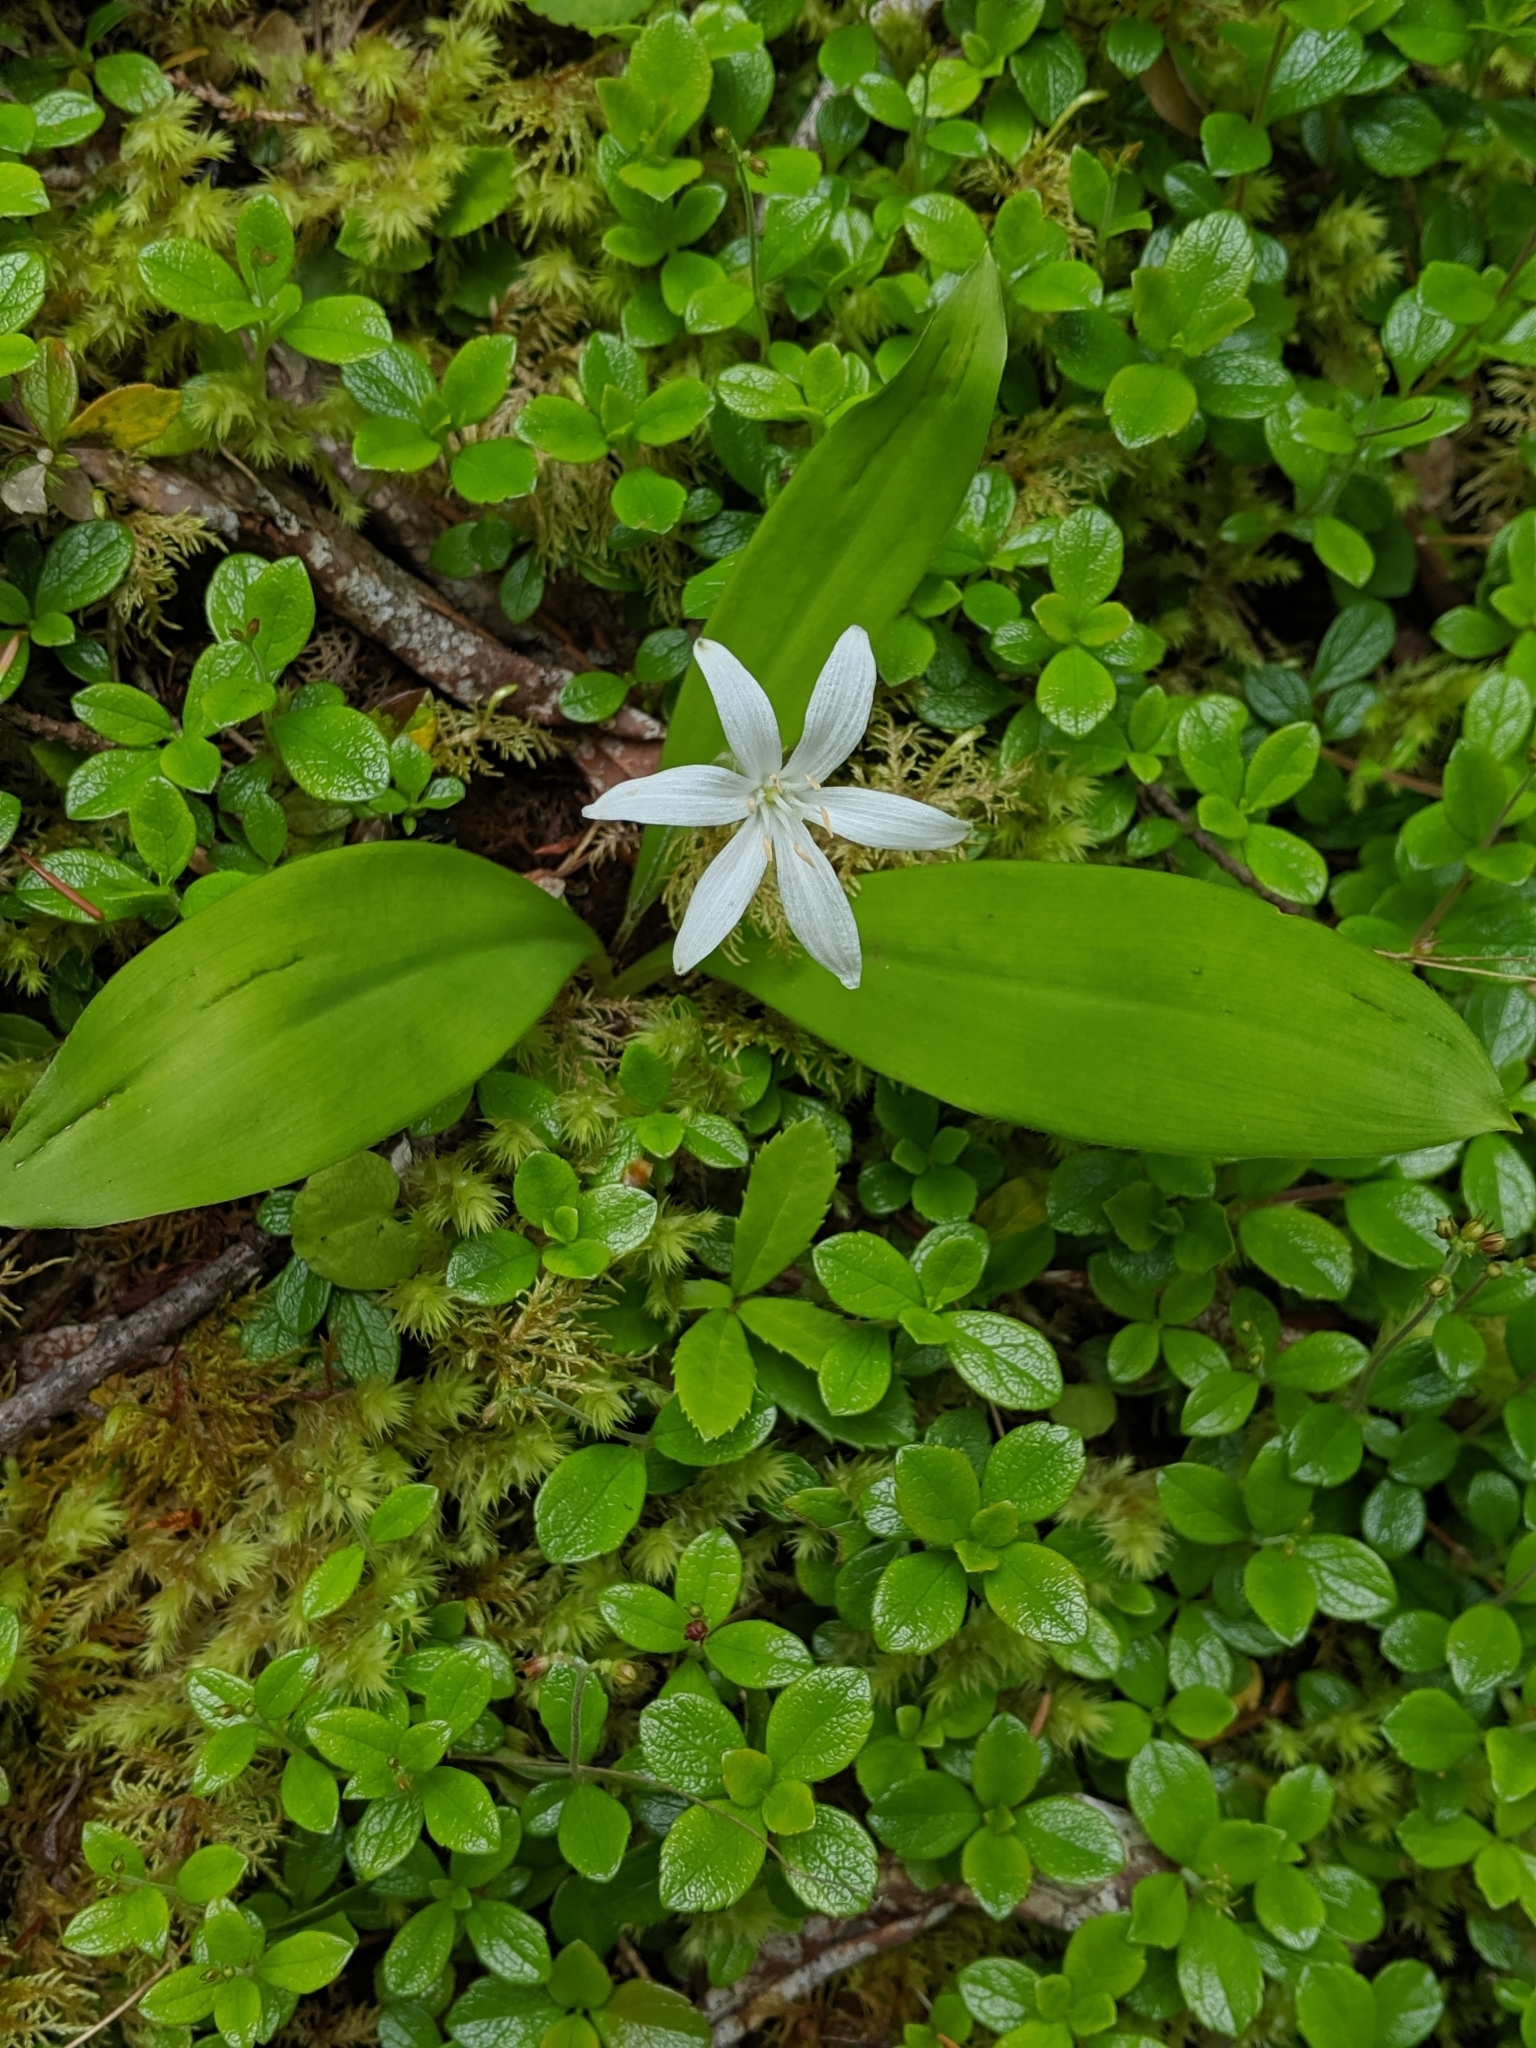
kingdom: Plantae
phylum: Tracheophyta
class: Liliopsida
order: Liliales
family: Liliaceae
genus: Clintonia
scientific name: Clintonia uniflora
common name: Queen's cup
